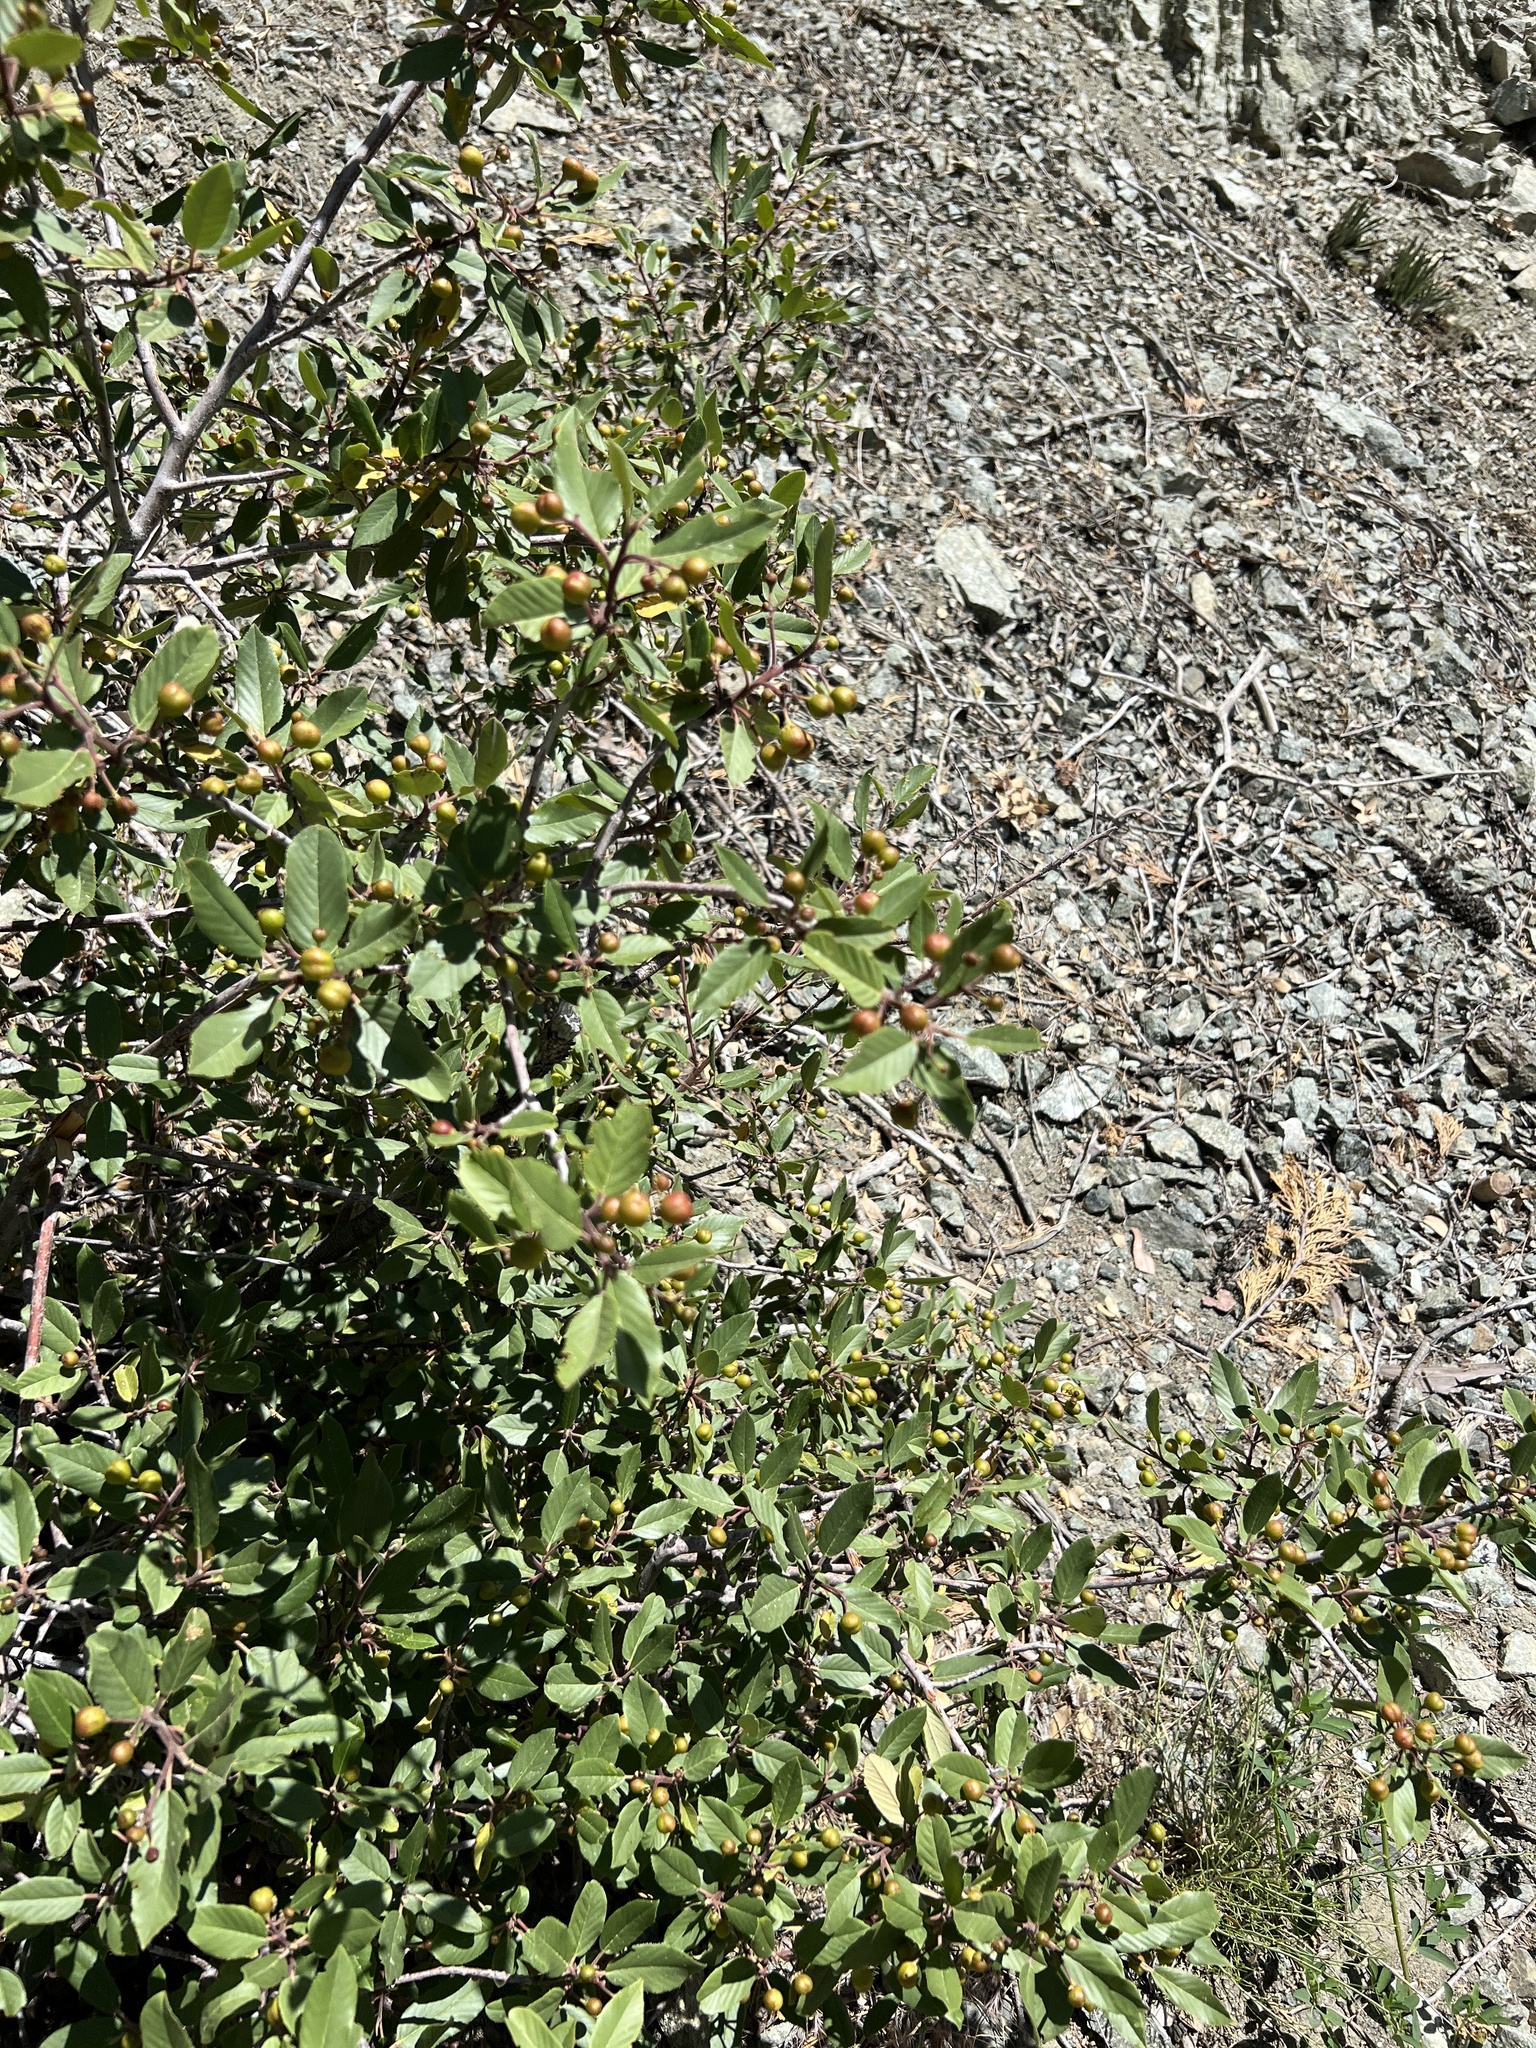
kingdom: Plantae
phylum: Tracheophyta
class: Magnoliopsida
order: Rosales
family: Rhamnaceae
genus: Frangula
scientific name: Frangula californica
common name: California buckthorn
